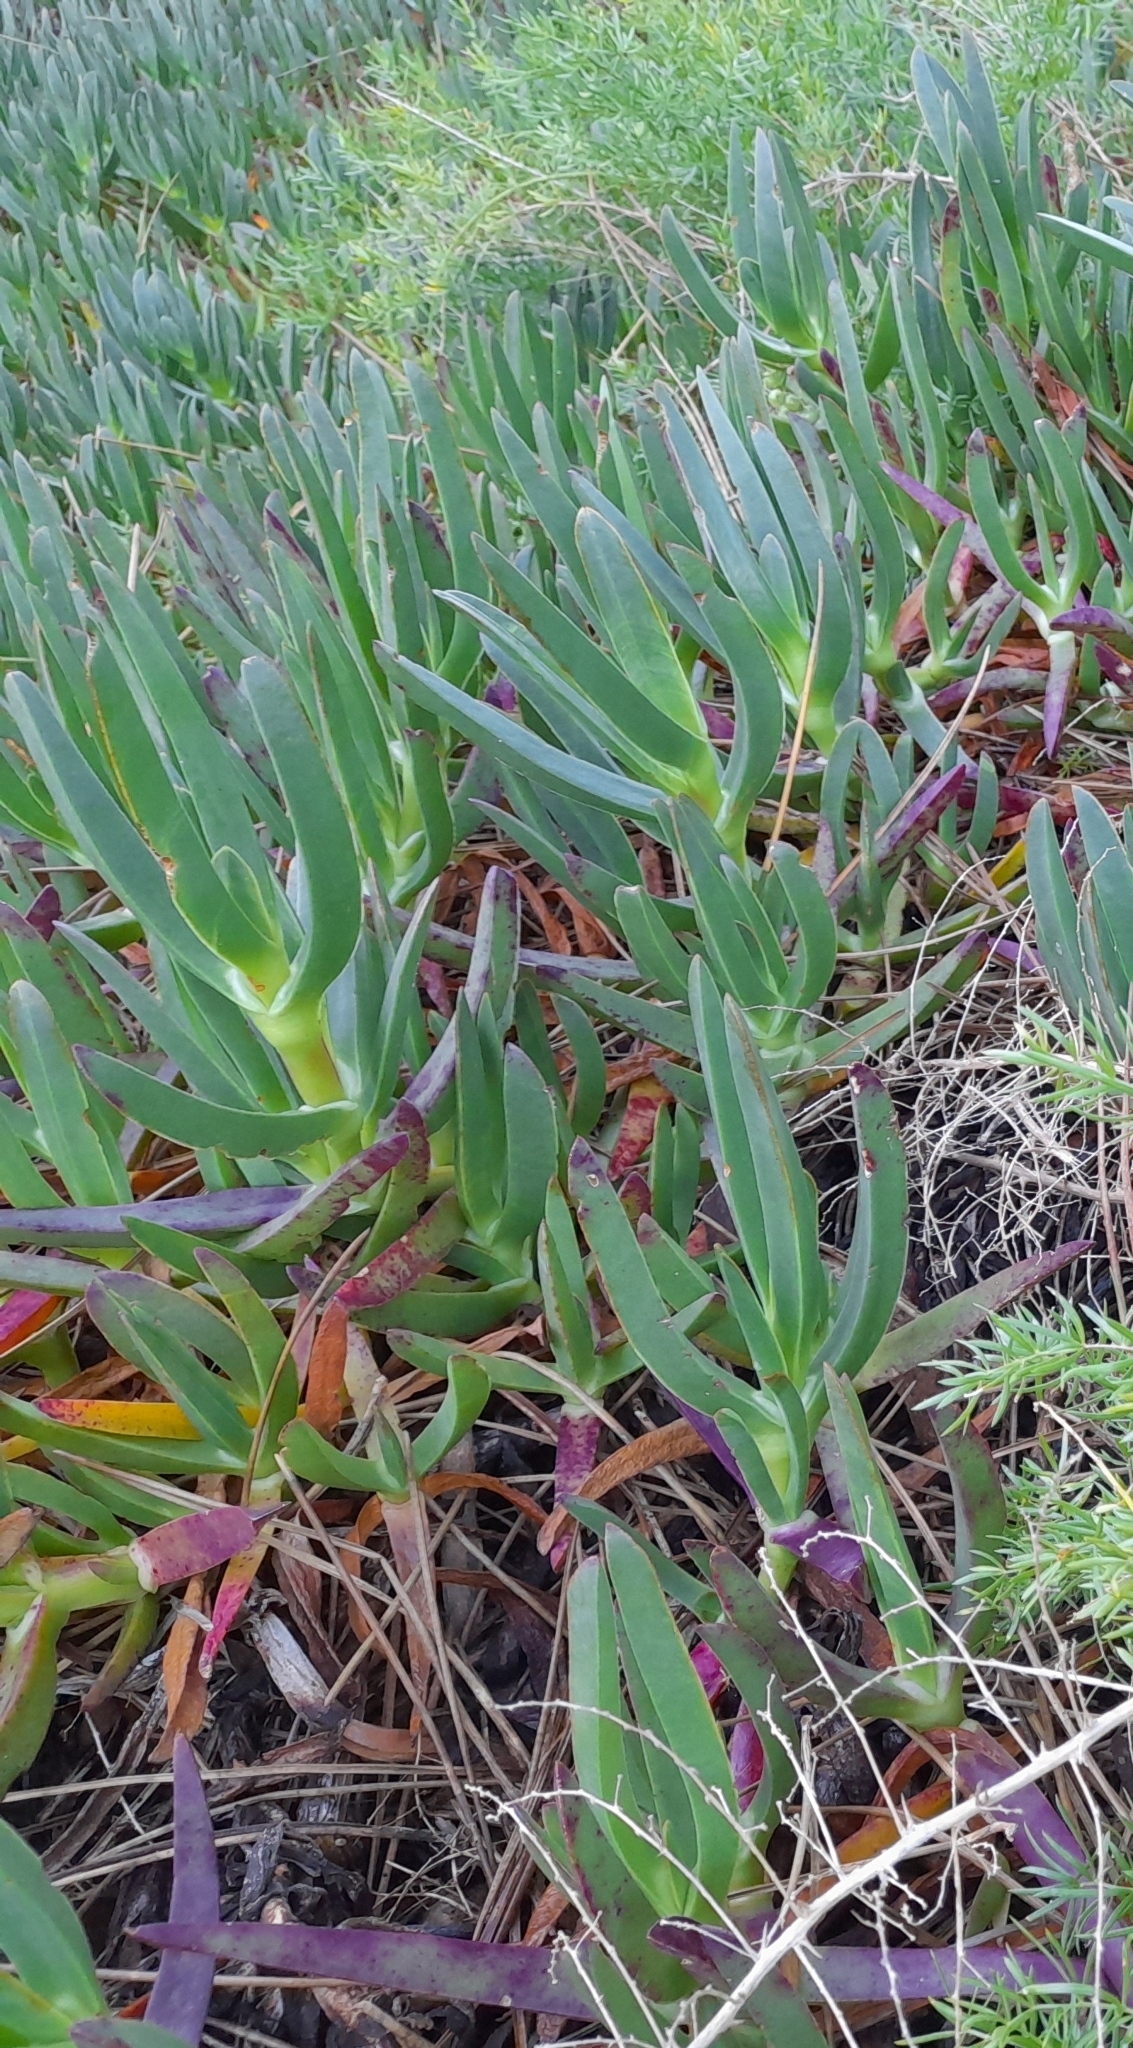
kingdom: Plantae
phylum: Tracheophyta
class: Magnoliopsida
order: Caryophyllales
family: Aizoaceae
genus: Carpobrotus
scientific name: Carpobrotus edulis
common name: Hottentot-fig
